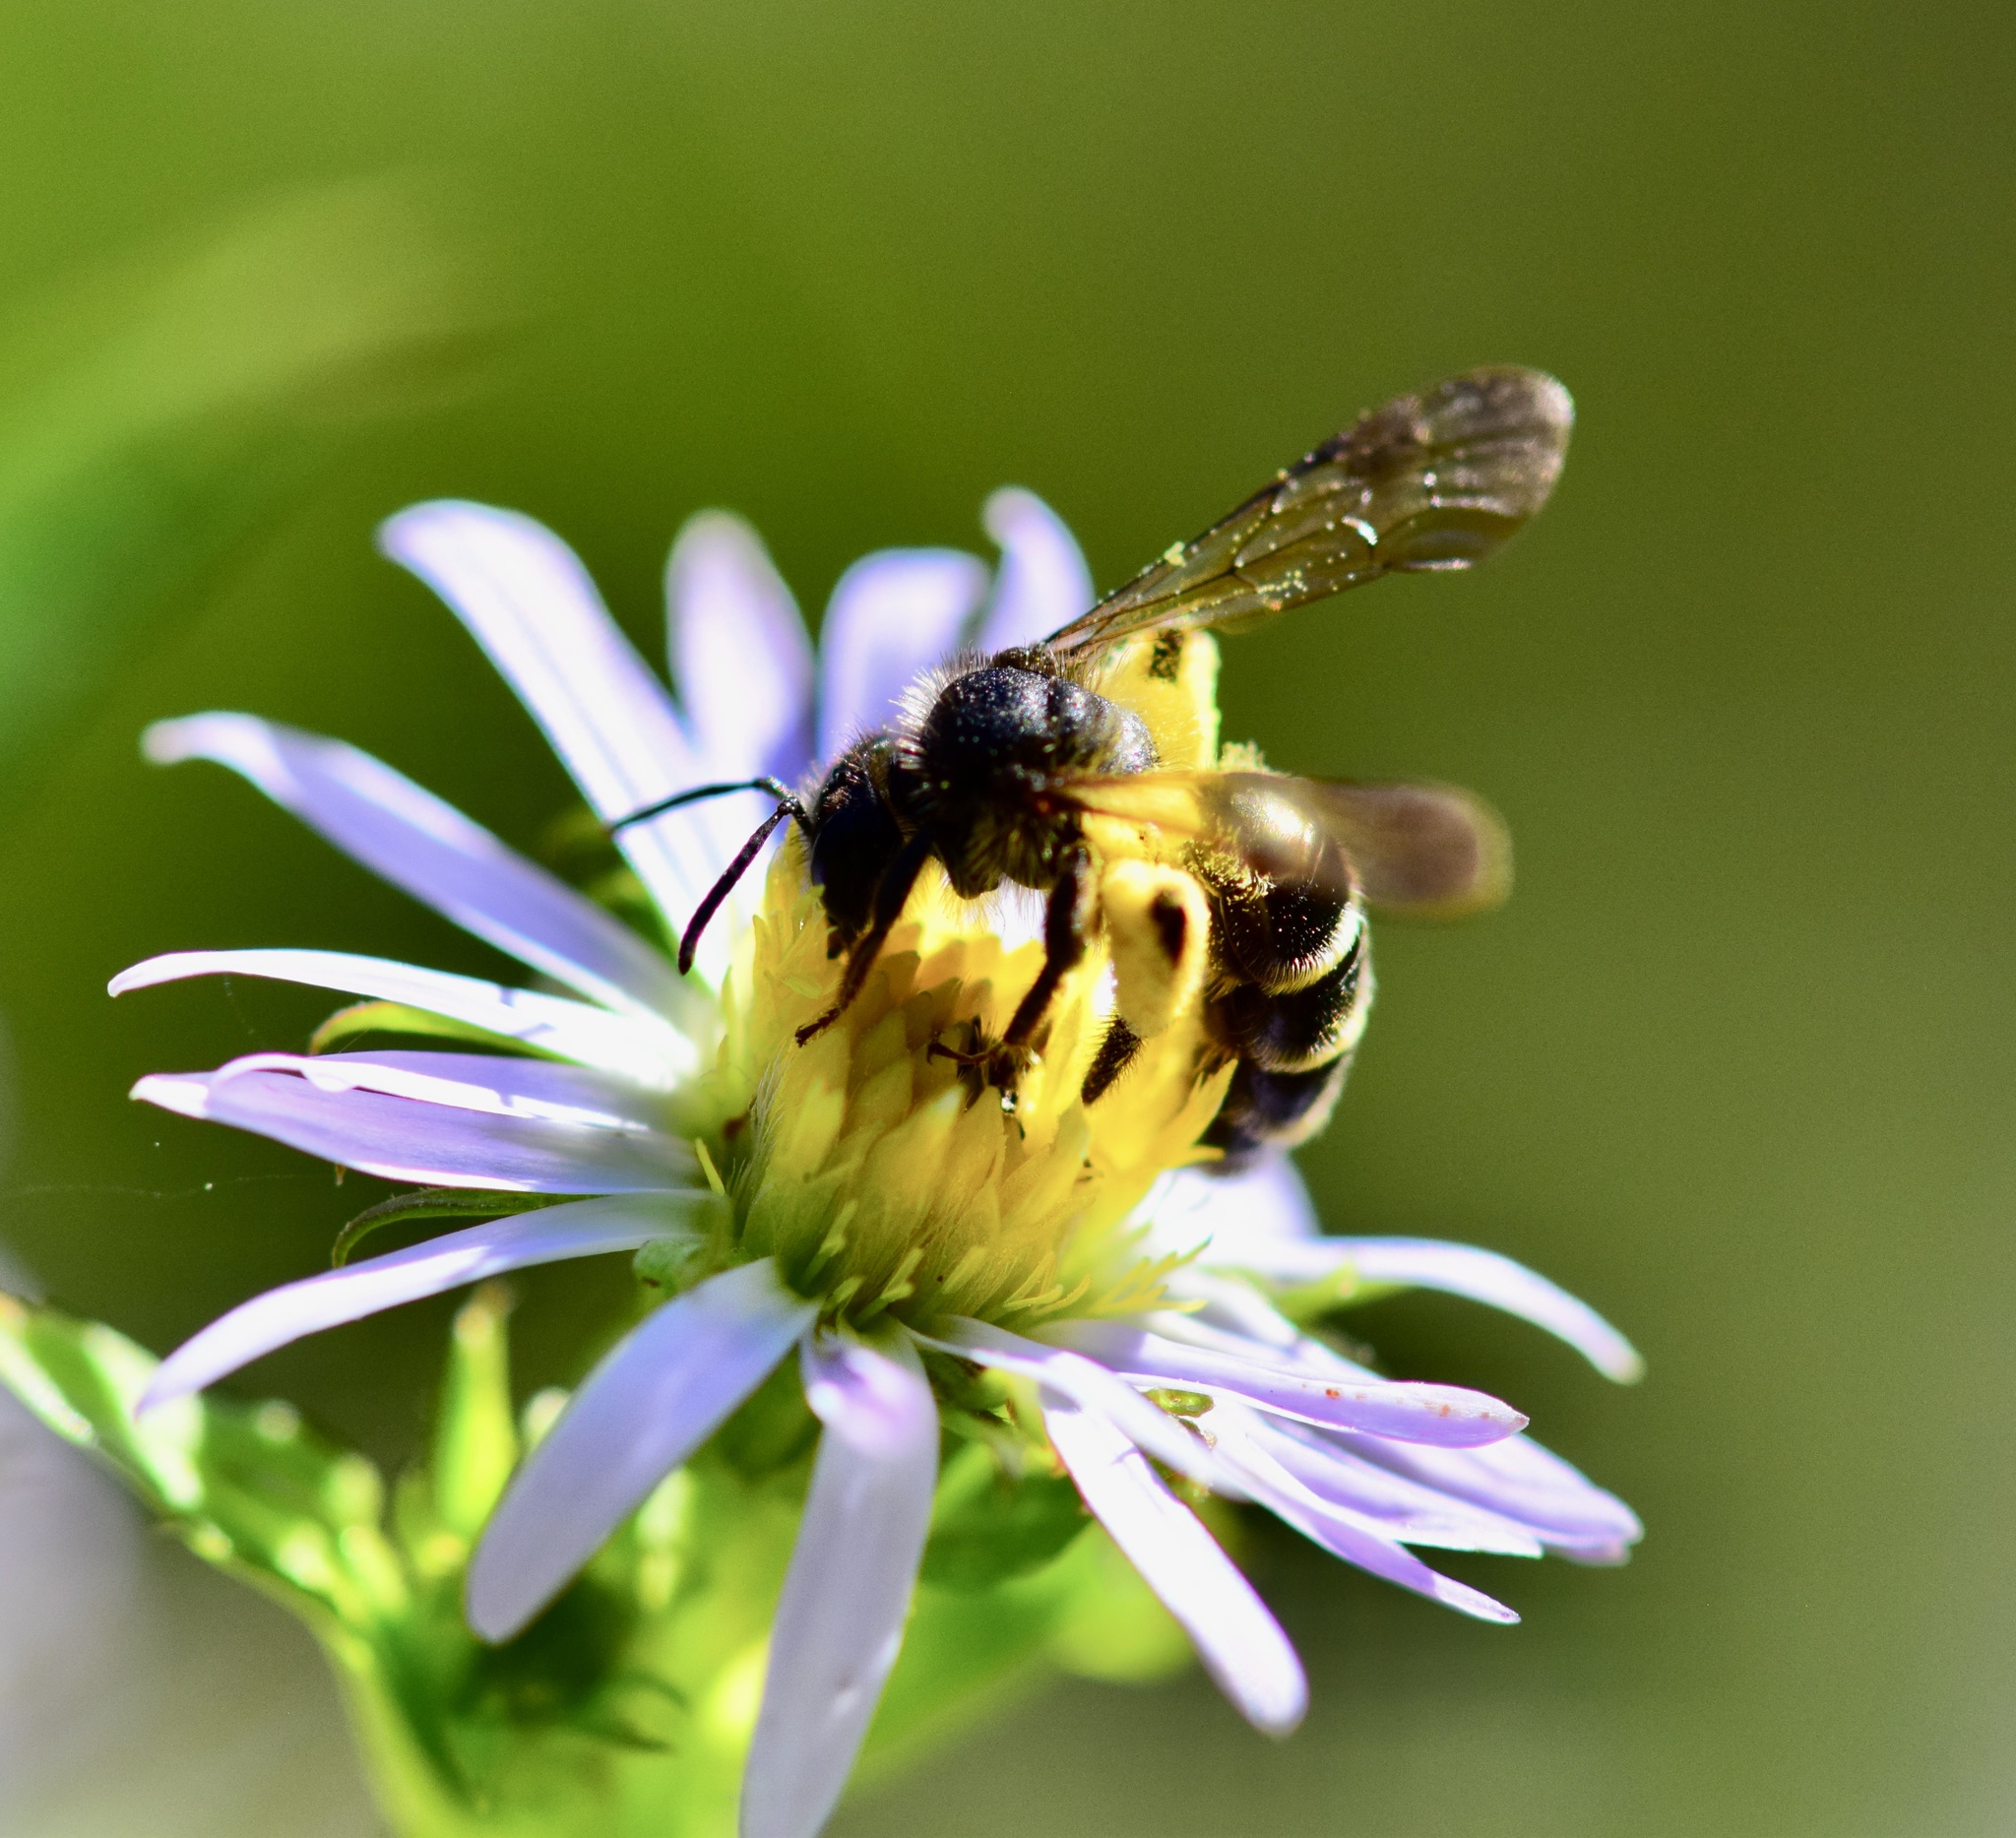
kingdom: Animalia
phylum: Arthropoda
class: Insecta
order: Hymenoptera
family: Andrenidae
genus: Andrena
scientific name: Andrena robervalensis
